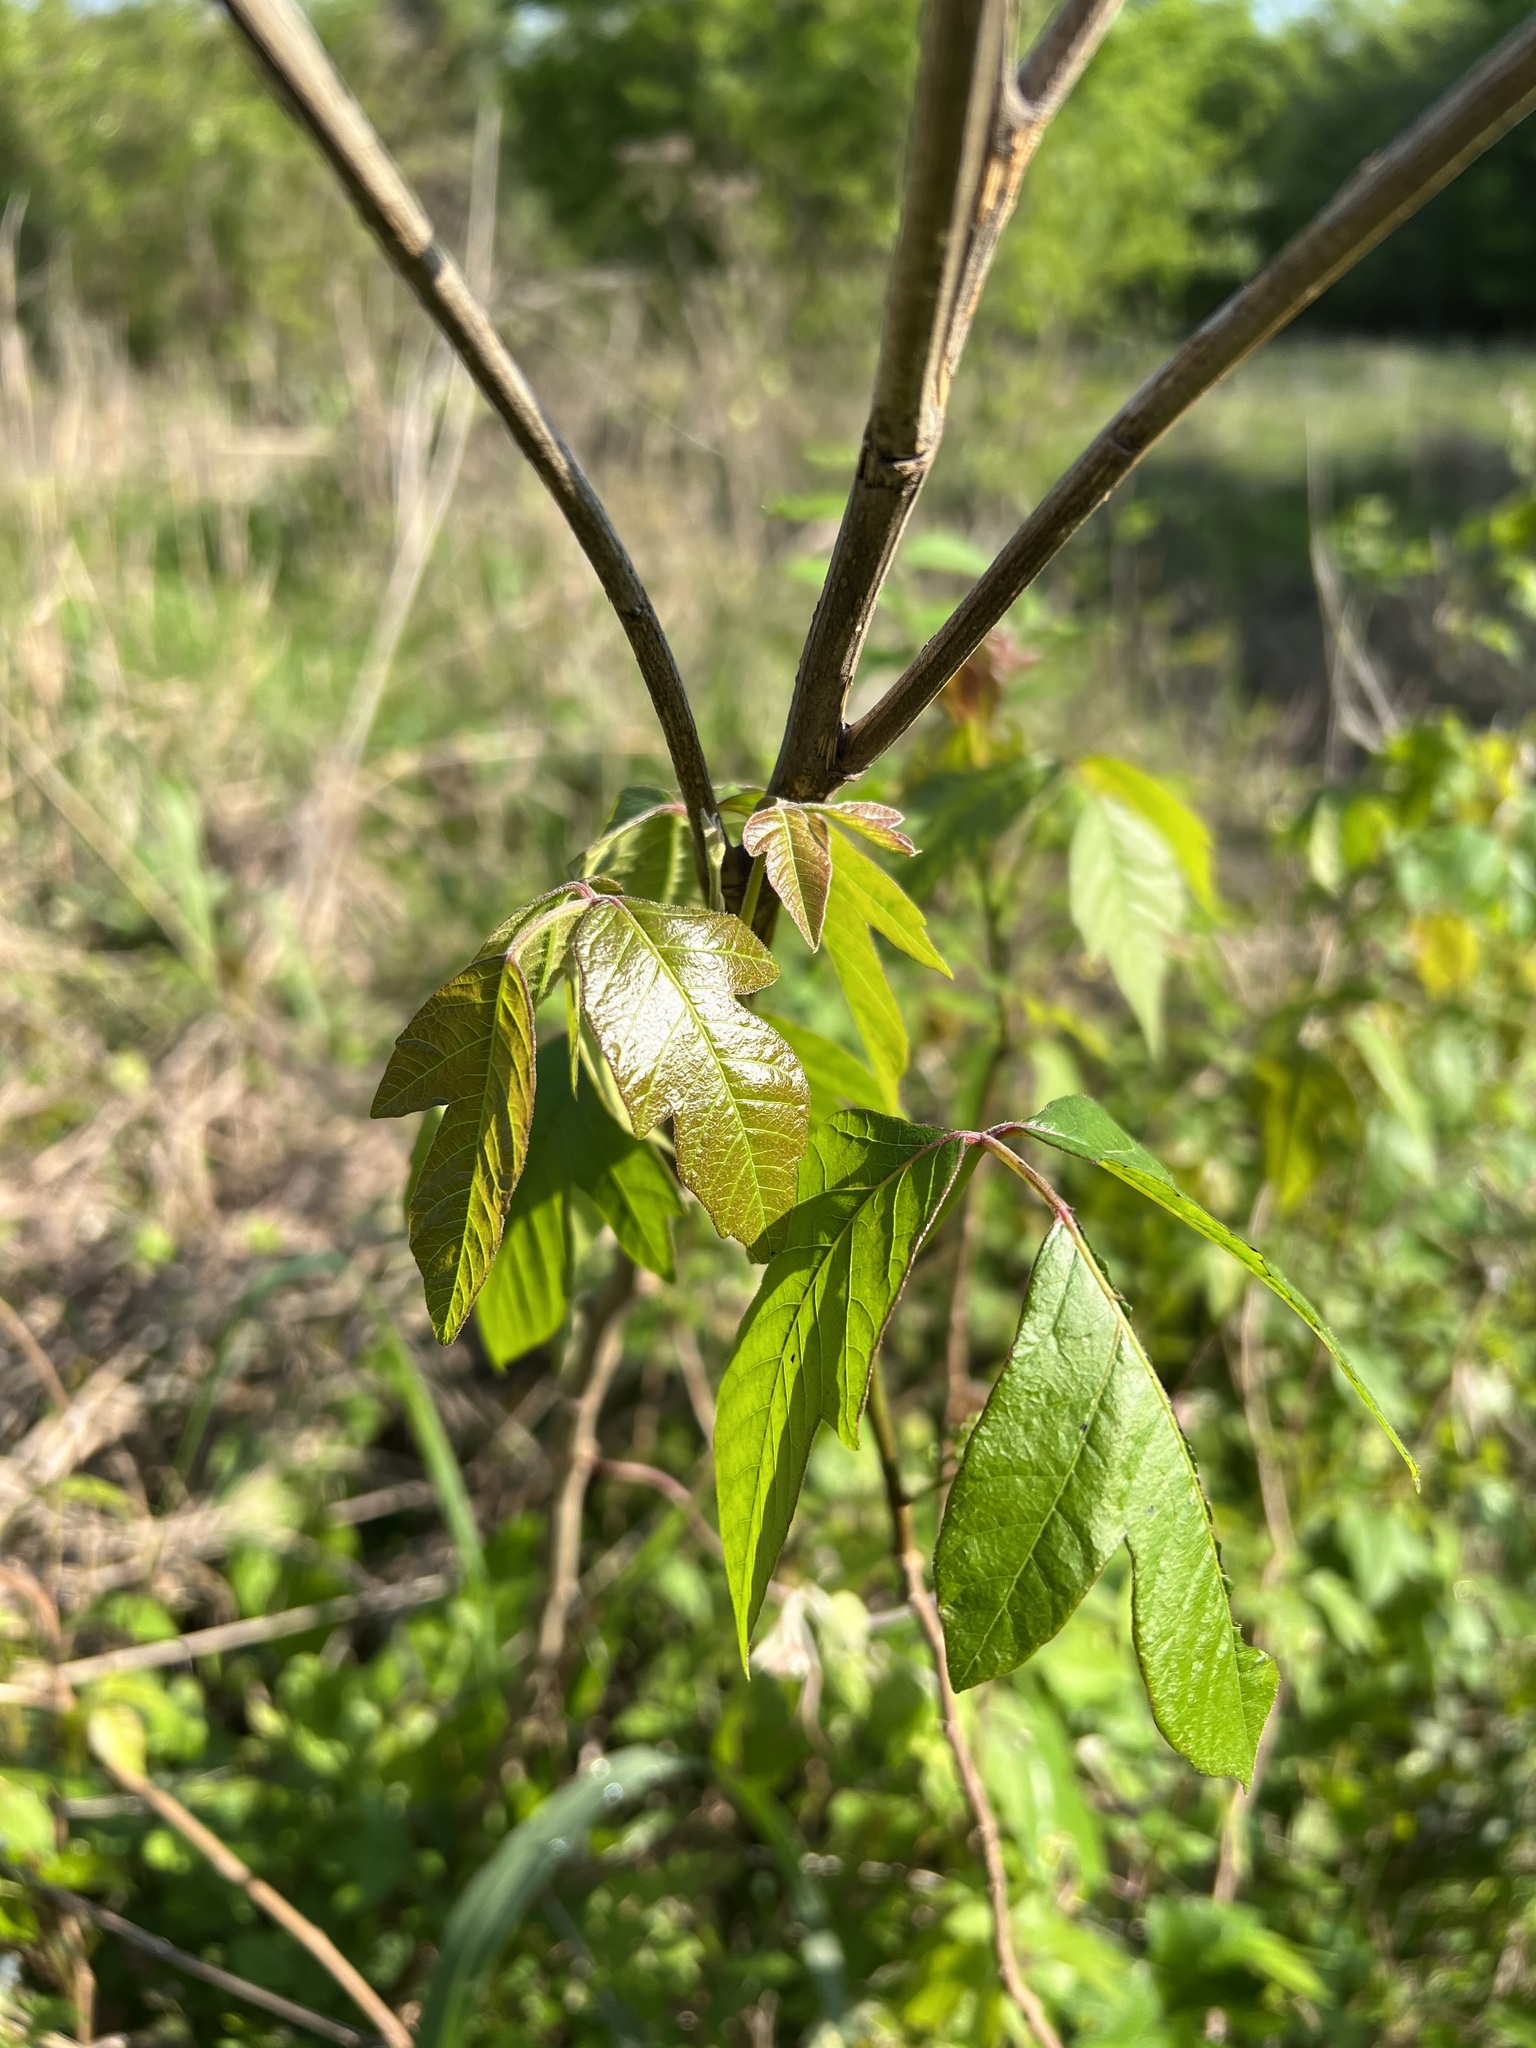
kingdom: Plantae
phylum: Tracheophyta
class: Magnoliopsida
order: Sapindales
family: Anacardiaceae
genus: Toxicodendron
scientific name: Toxicodendron radicans
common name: Poison ivy
